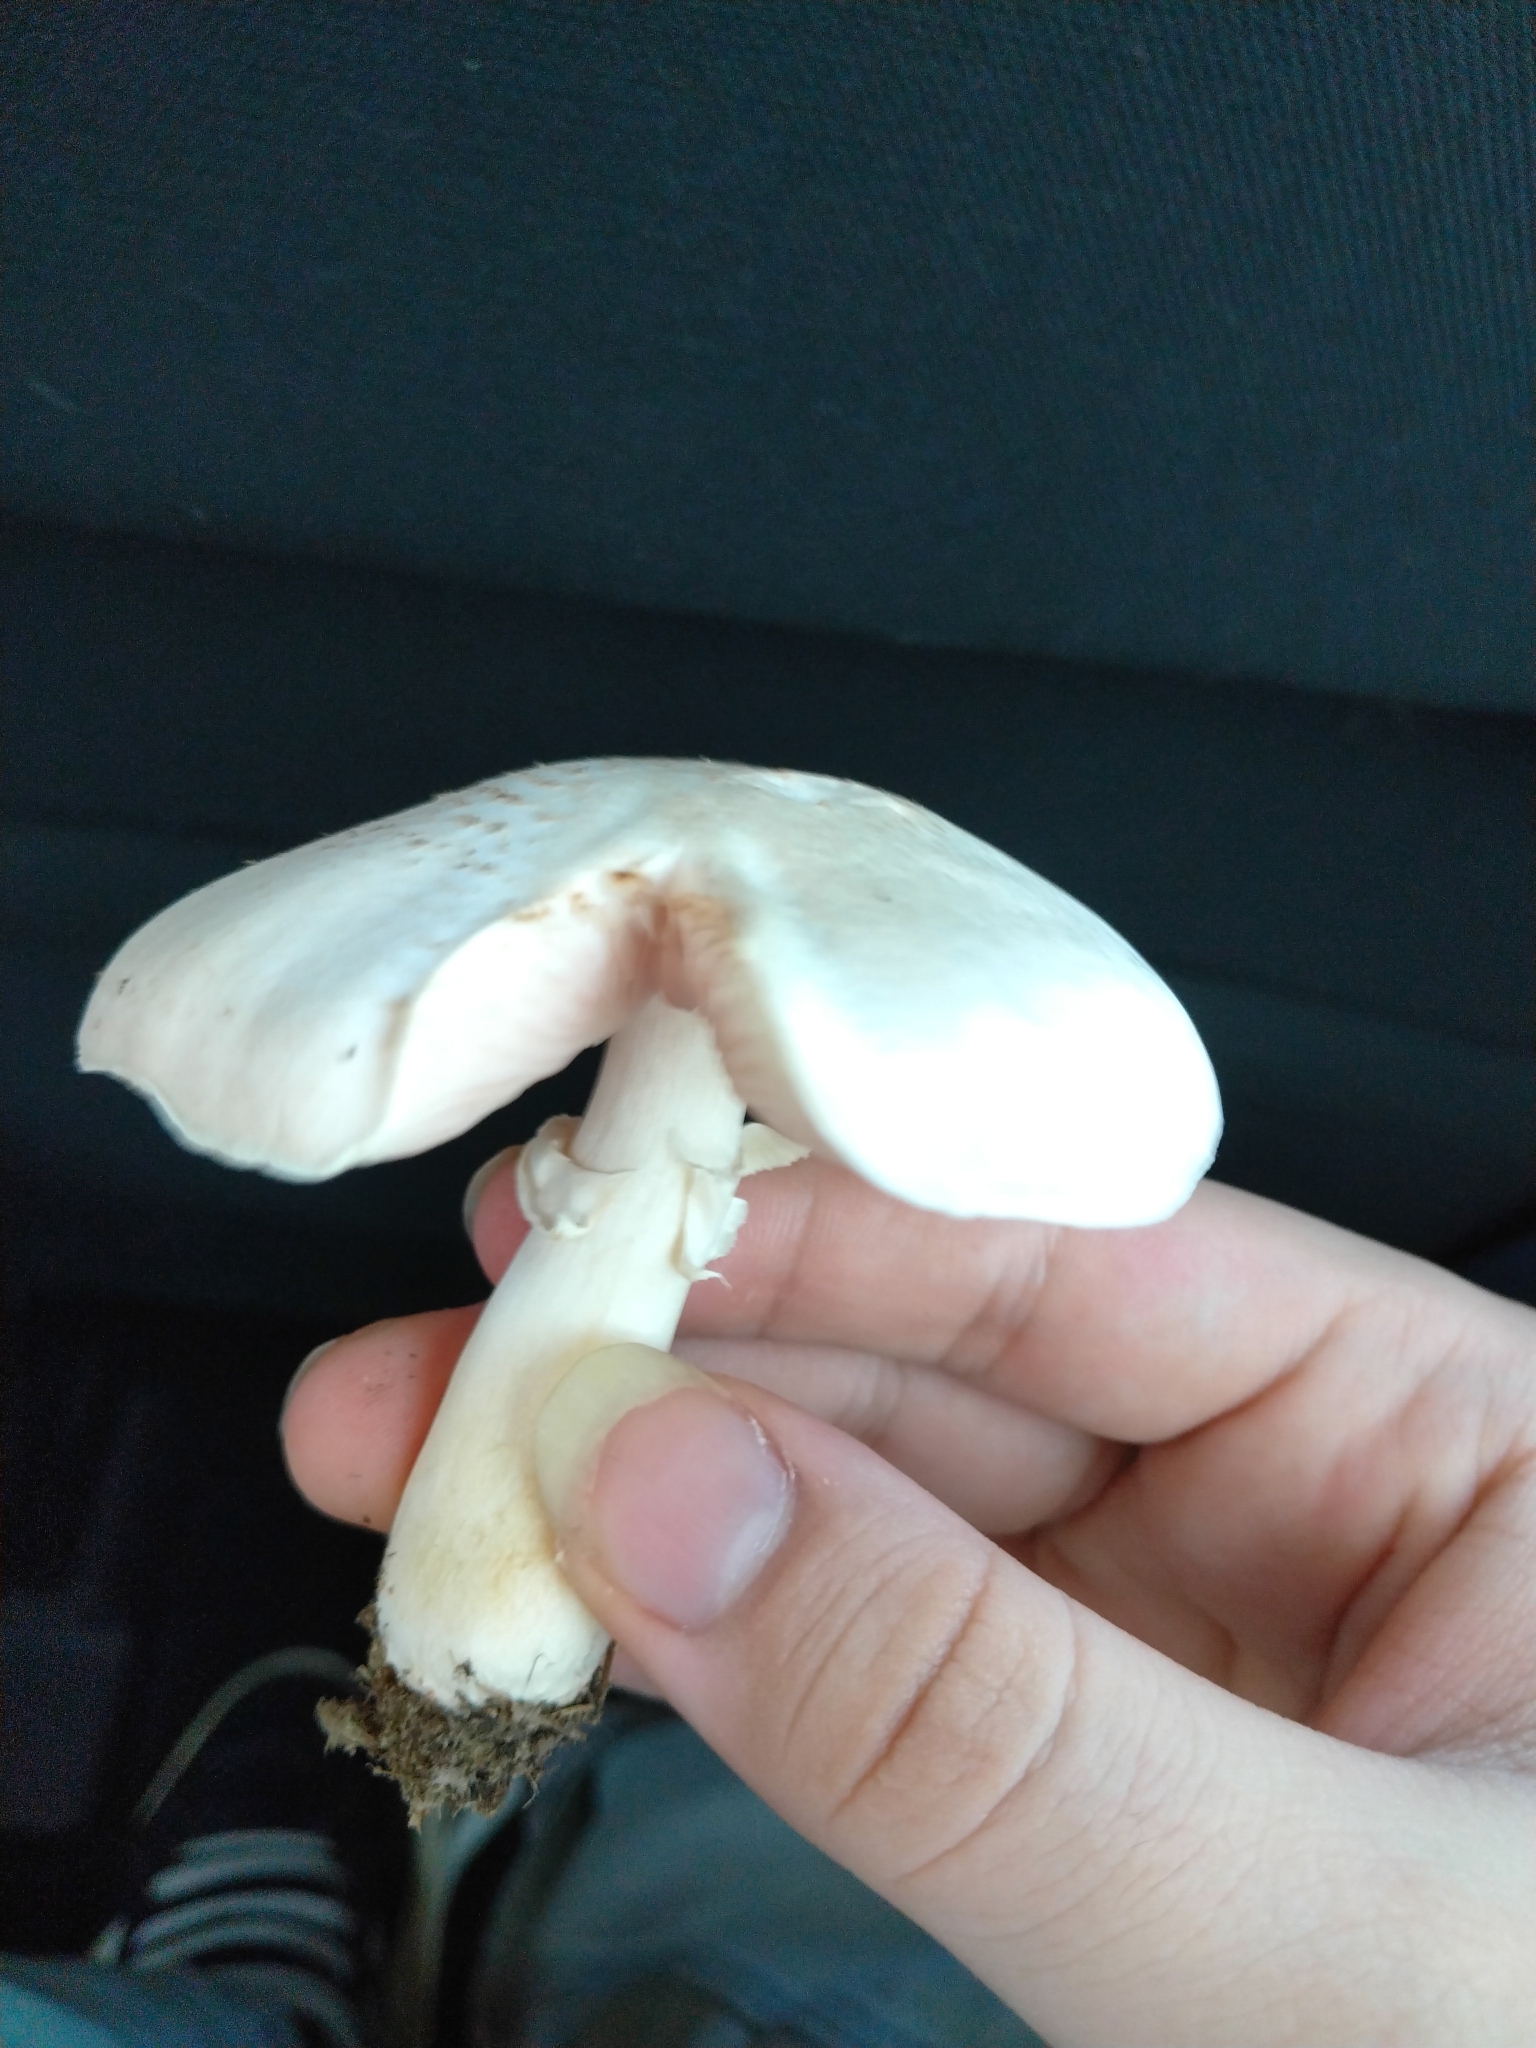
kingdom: Fungi
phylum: Basidiomycota
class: Agaricomycetes
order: Agaricales
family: Agaricaceae
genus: Agaricus
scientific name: Agaricus campestris
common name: Field mushroom
